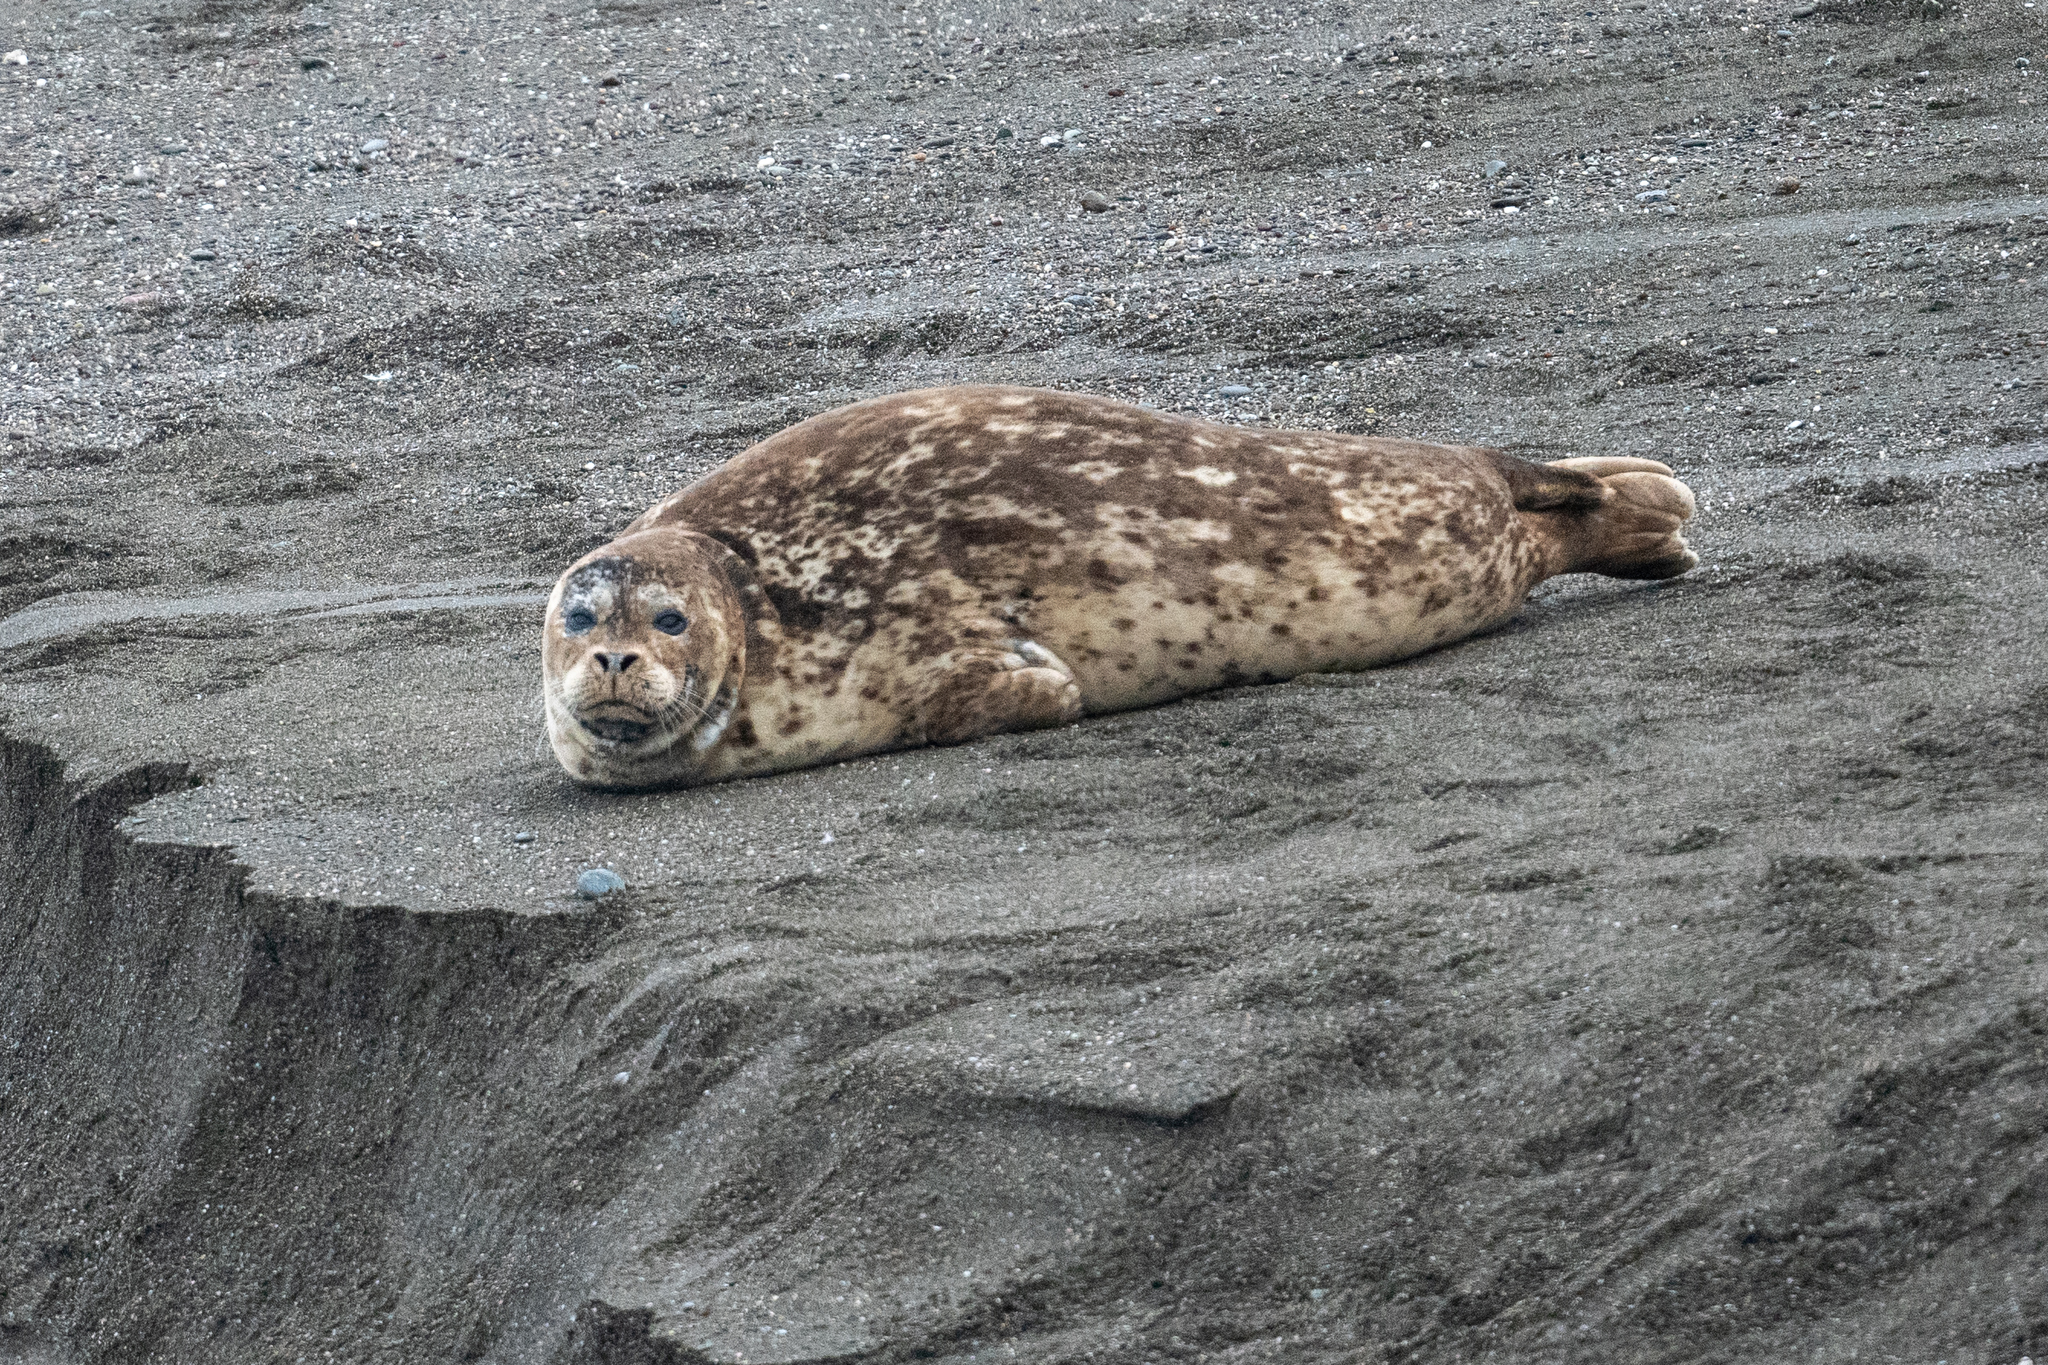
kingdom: Animalia
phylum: Chordata
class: Mammalia
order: Carnivora
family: Phocidae
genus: Phoca
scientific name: Phoca vitulina
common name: Harbor seal
